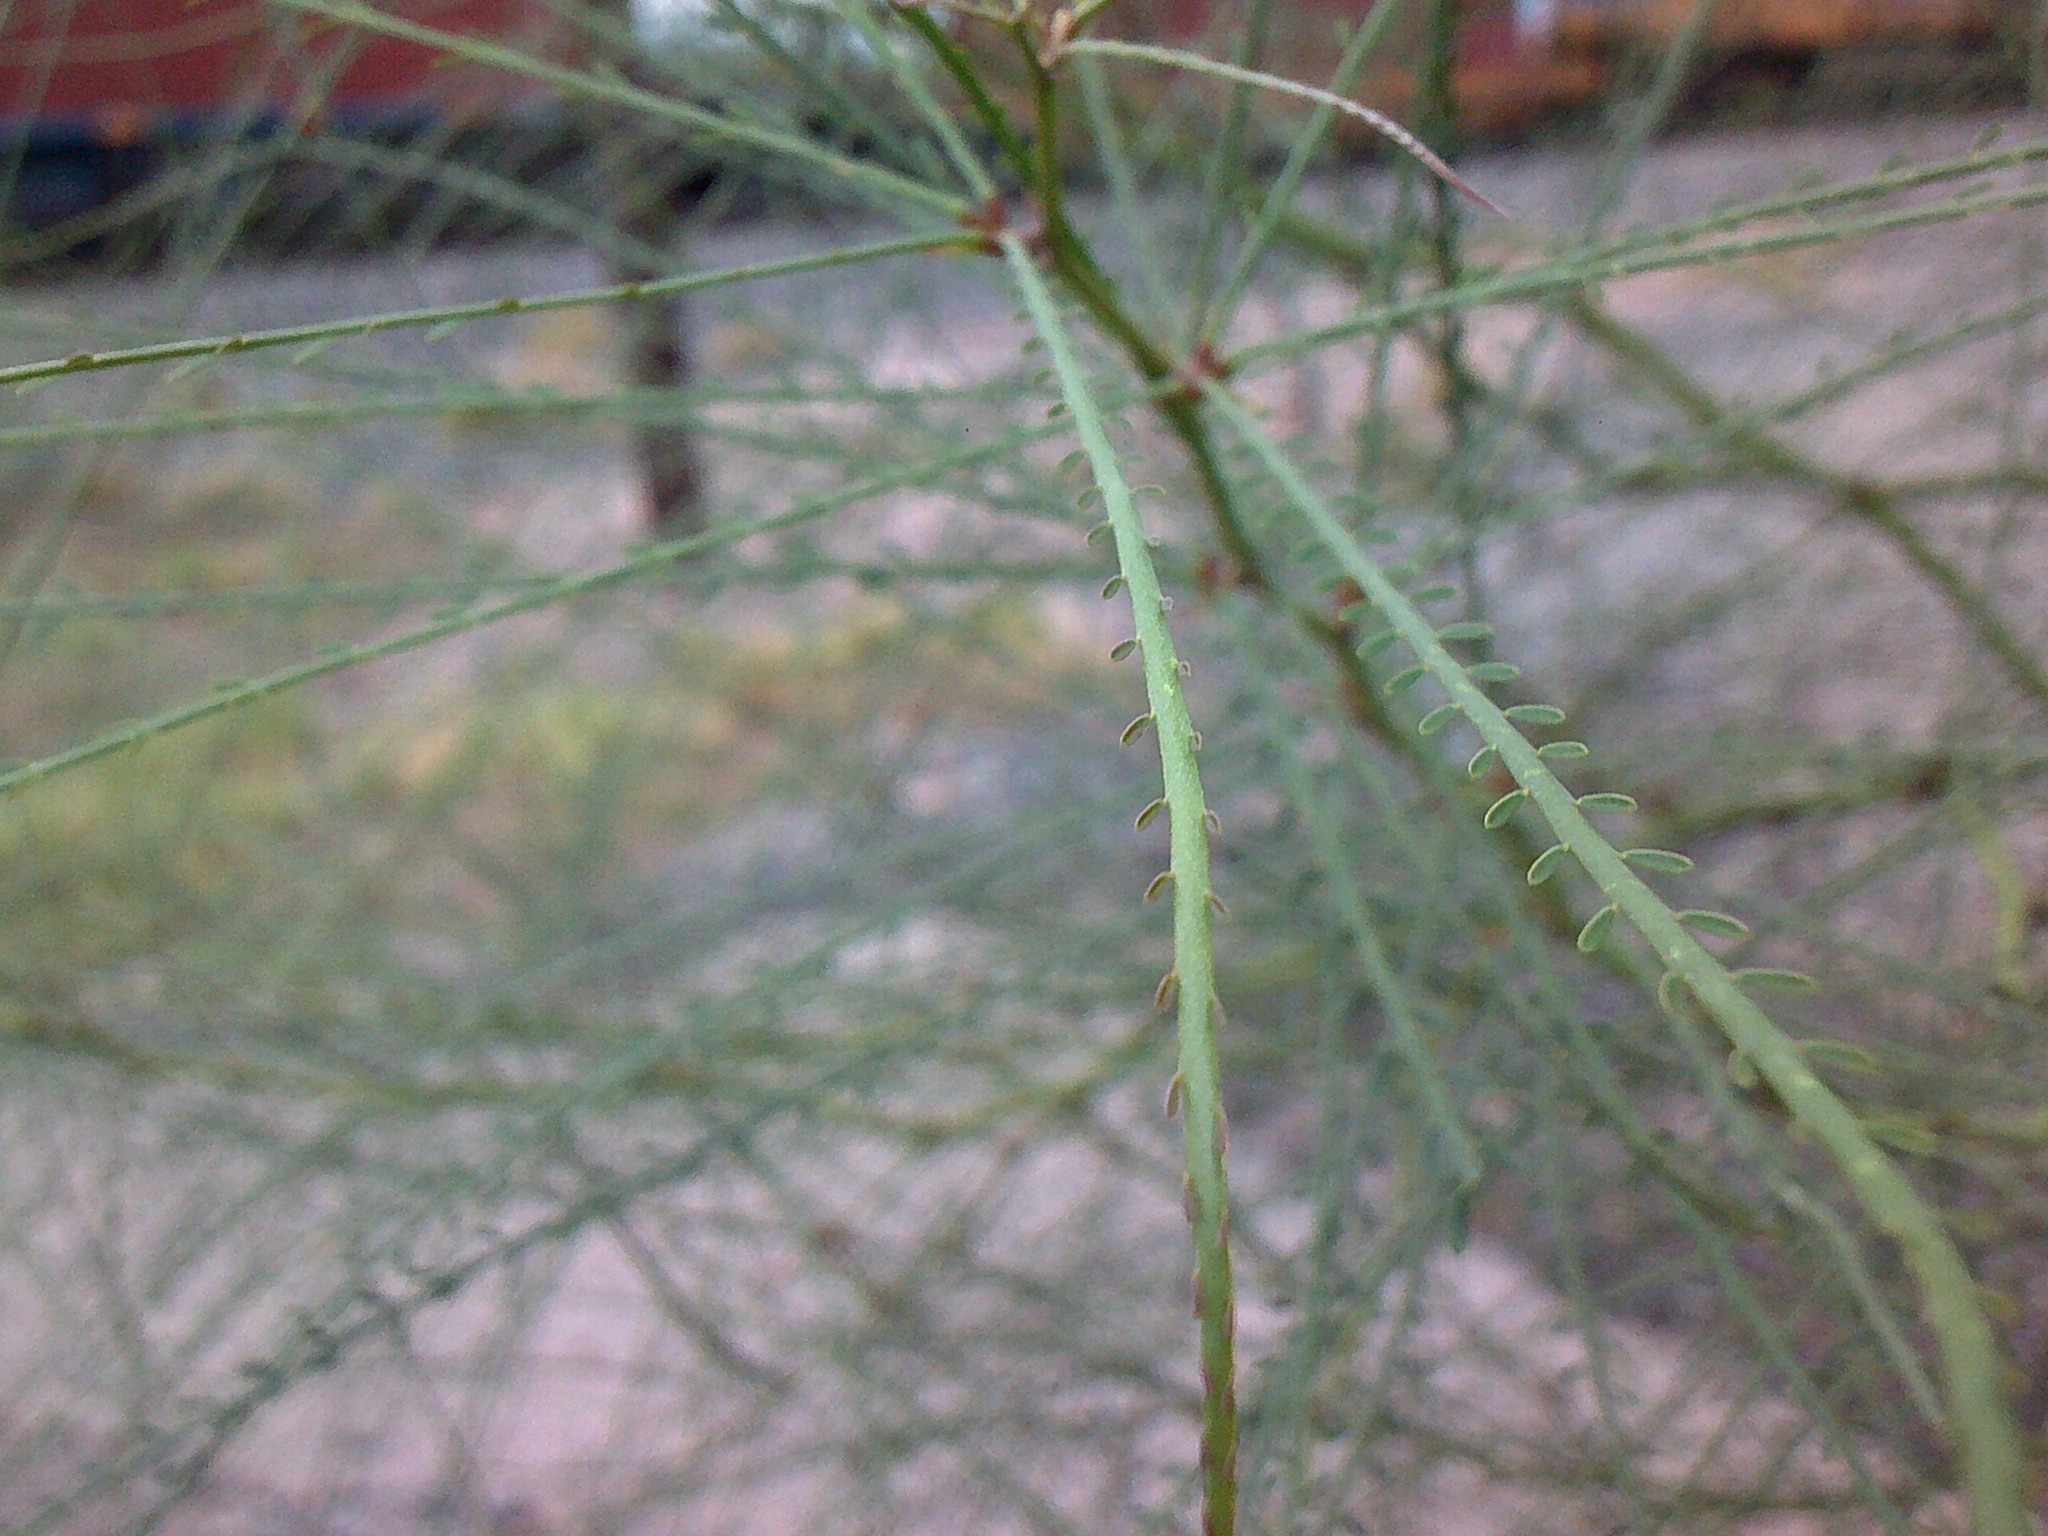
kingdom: Plantae
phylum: Tracheophyta
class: Magnoliopsida
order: Fabales
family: Fabaceae
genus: Parkinsonia
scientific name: Parkinsonia aculeata
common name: Jerusalem thorn
